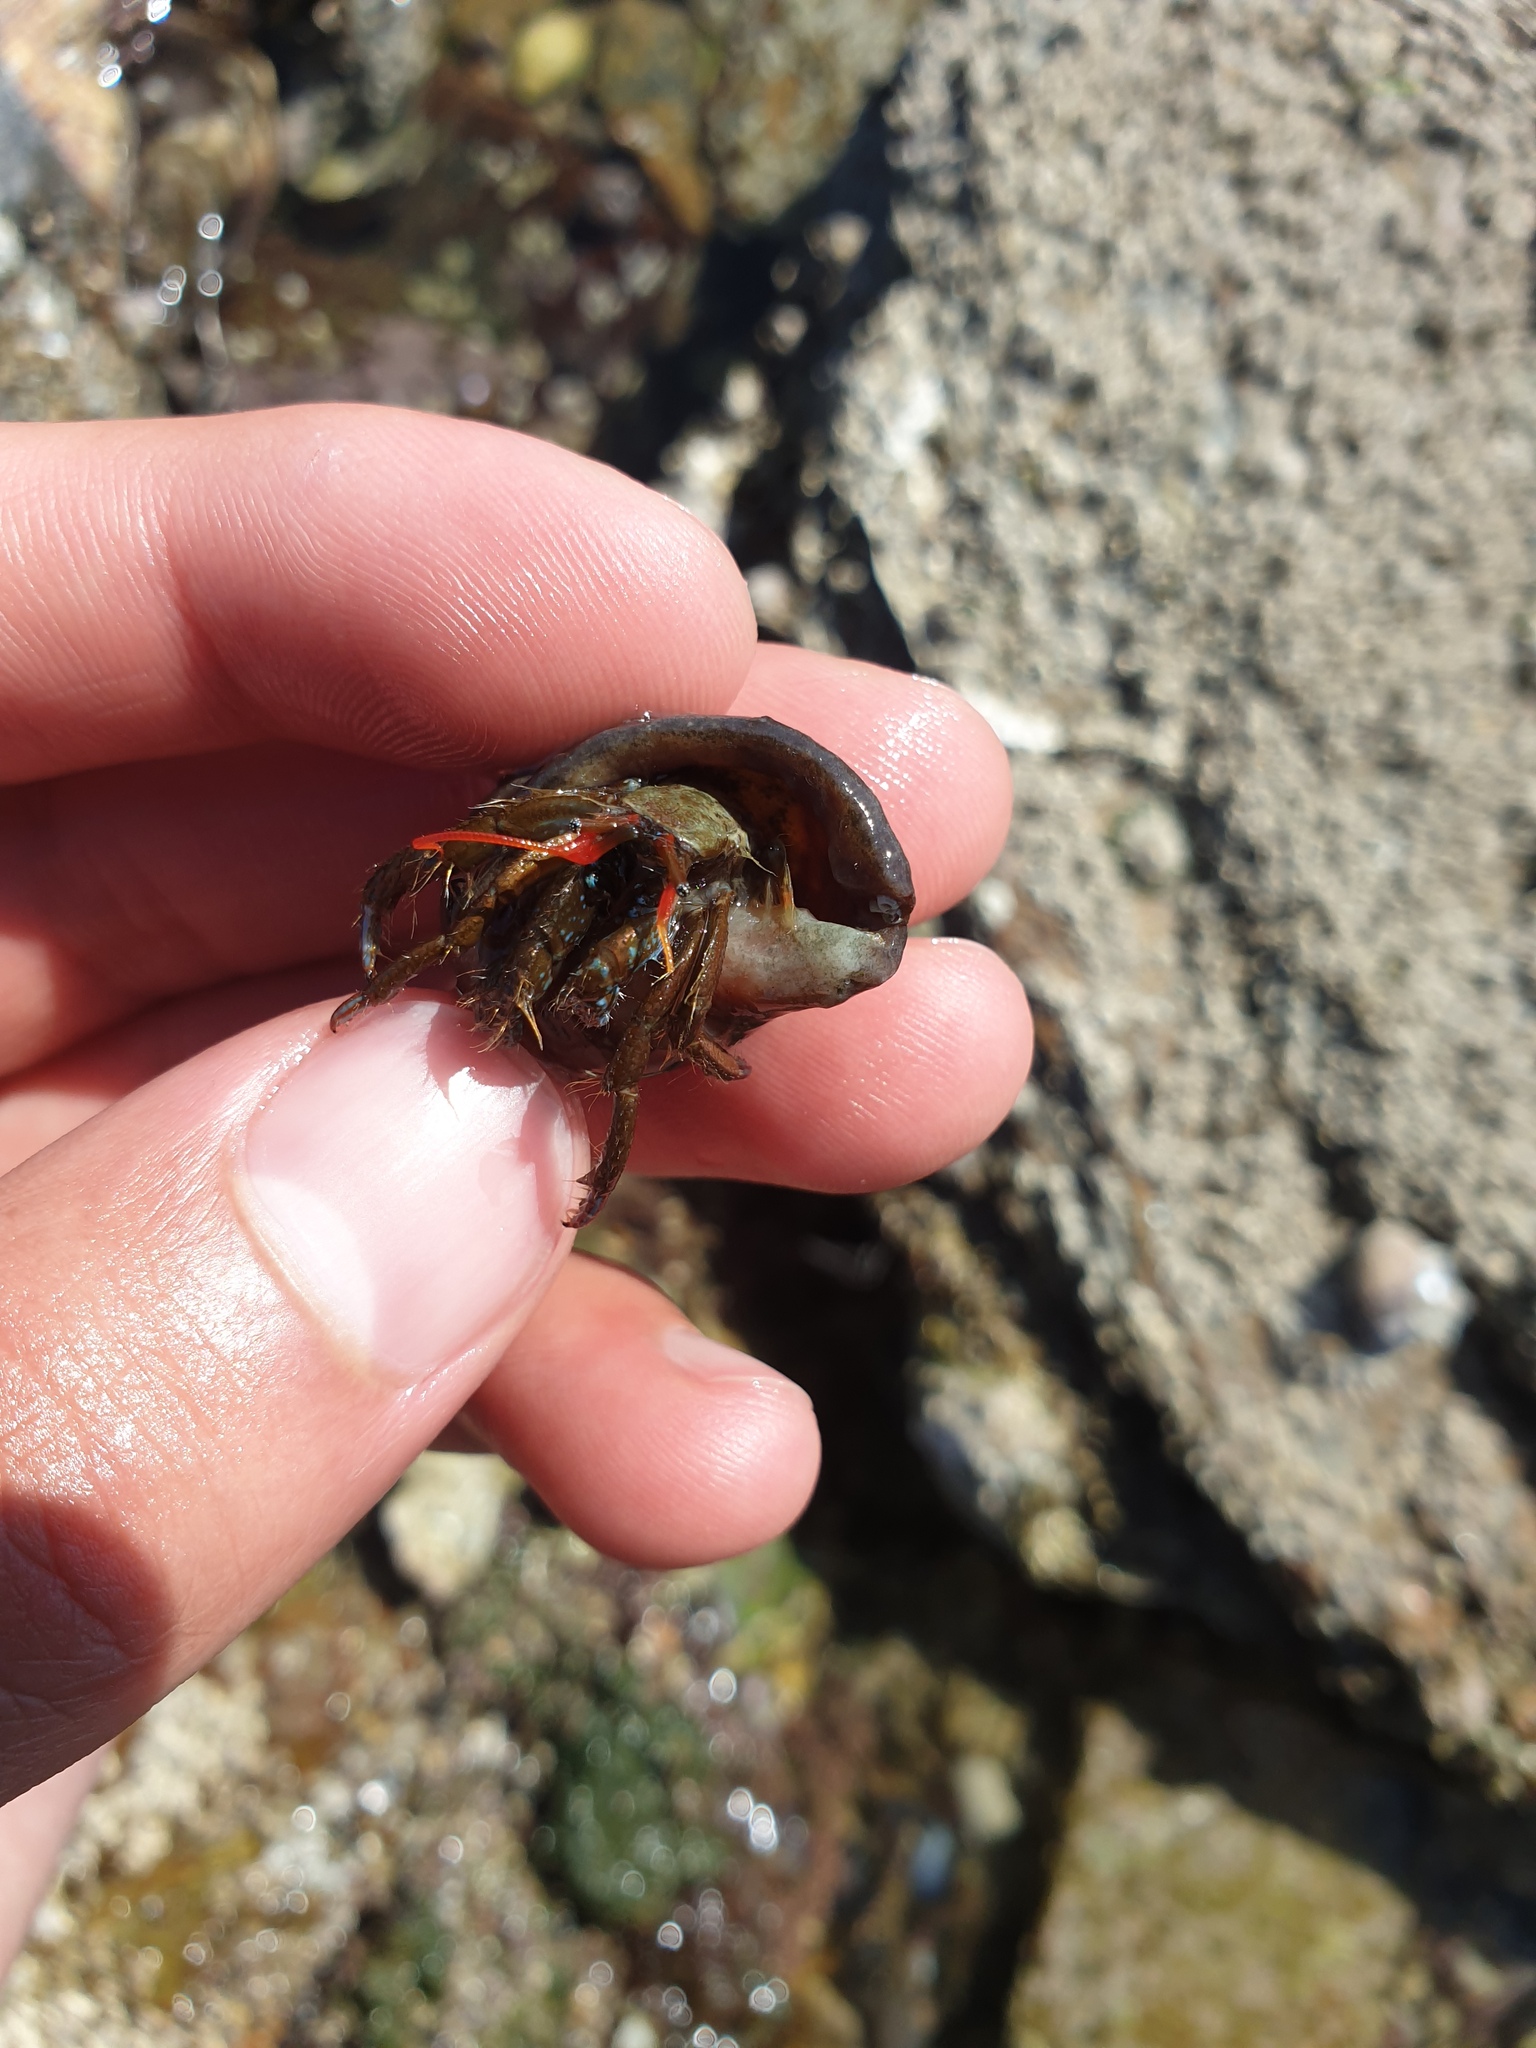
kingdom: Animalia
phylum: Arthropoda
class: Malacostraca
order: Decapoda
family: Diogenidae
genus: Clibanarius
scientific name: Clibanarius erythropus
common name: Hermit crab
